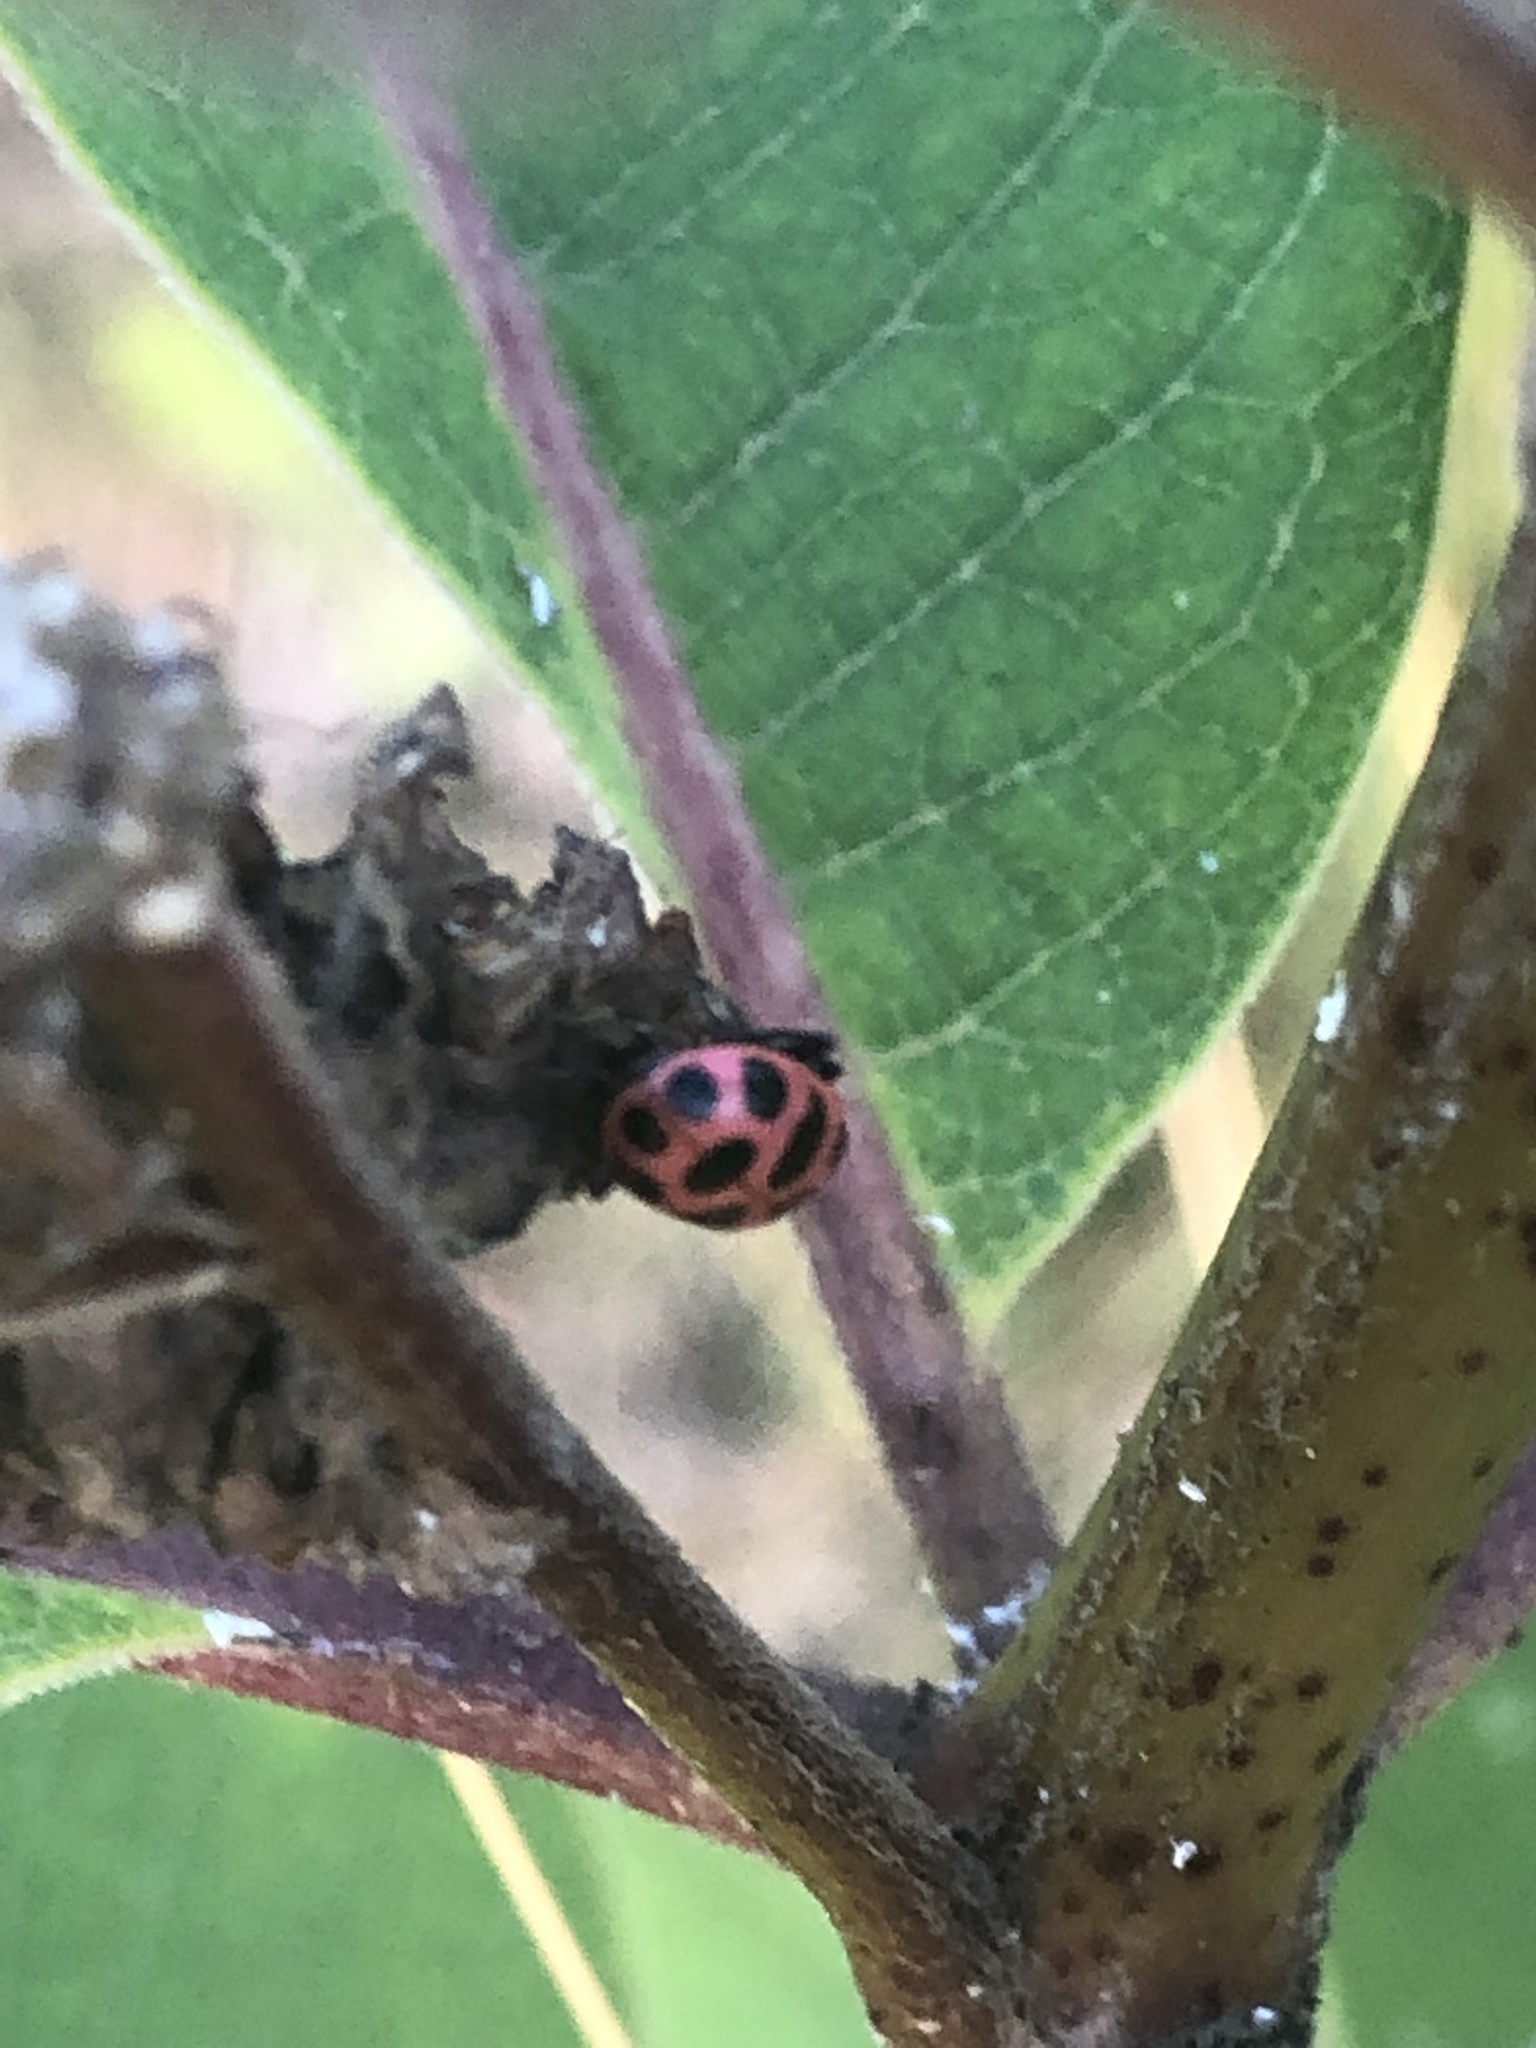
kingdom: Animalia
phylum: Arthropoda
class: Insecta
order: Coleoptera
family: Coccinellidae
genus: Coleomegilla
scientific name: Coleomegilla maculata
